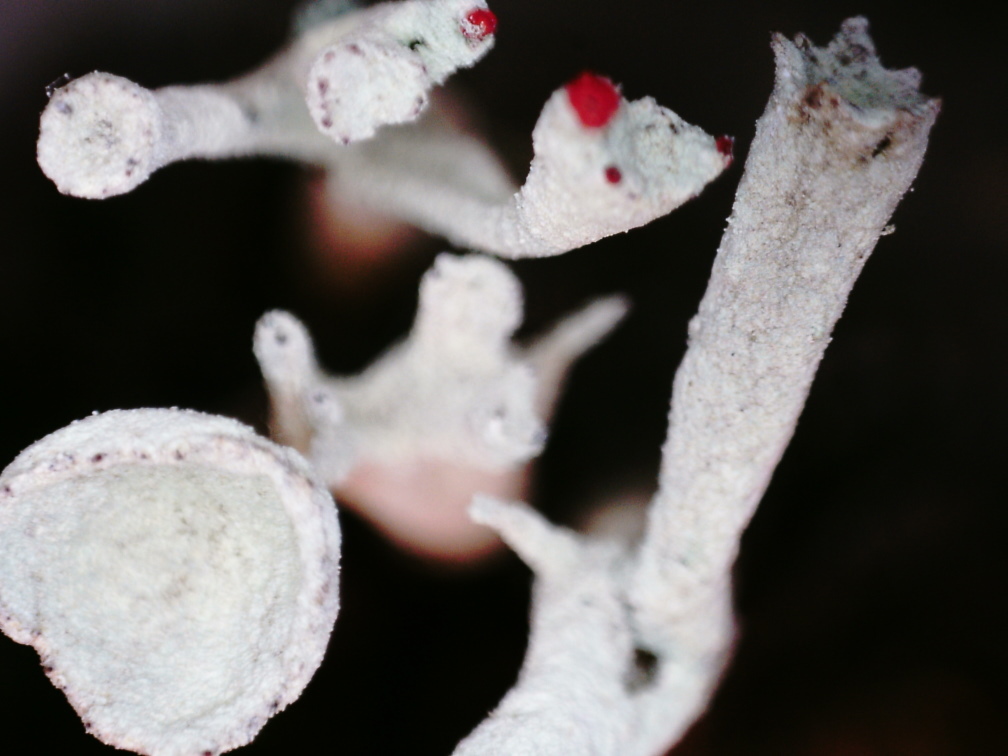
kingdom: Fungi
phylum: Ascomycota
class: Lecanoromycetes
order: Lecanorales
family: Cladoniaceae
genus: Cladonia
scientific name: Cladonia sulphurina
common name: Greater sulphur-cup lichen
